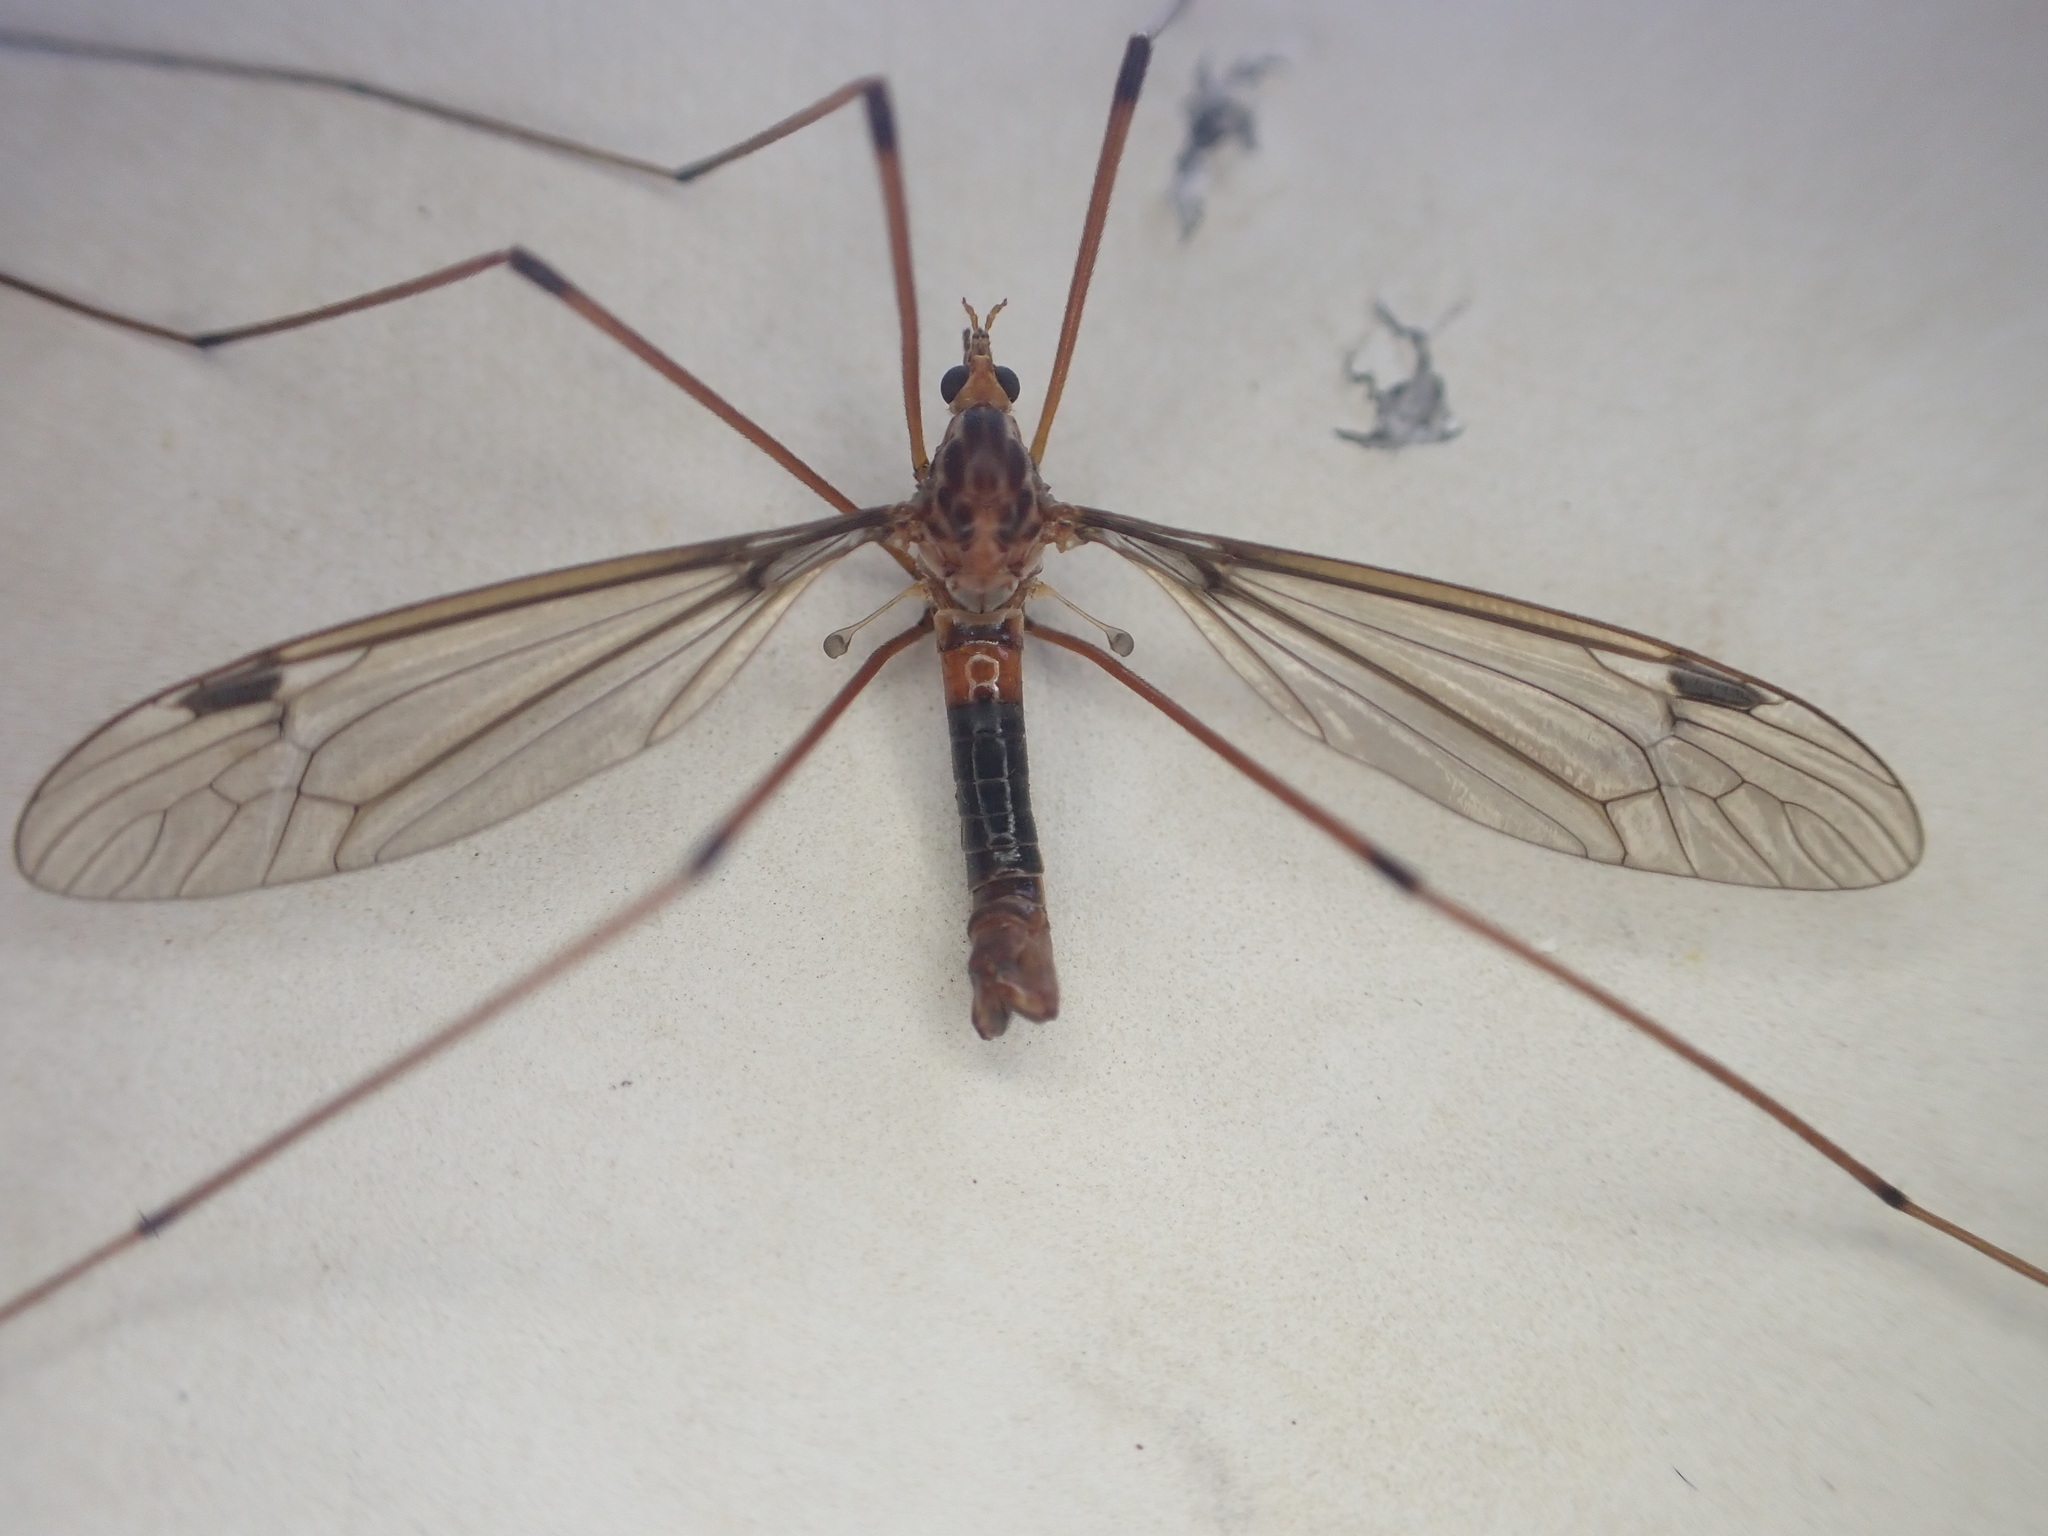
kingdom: Animalia
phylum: Arthropoda
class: Insecta
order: Diptera
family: Tipulidae
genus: Leptotarsus
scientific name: Leptotarsus heterogamus
